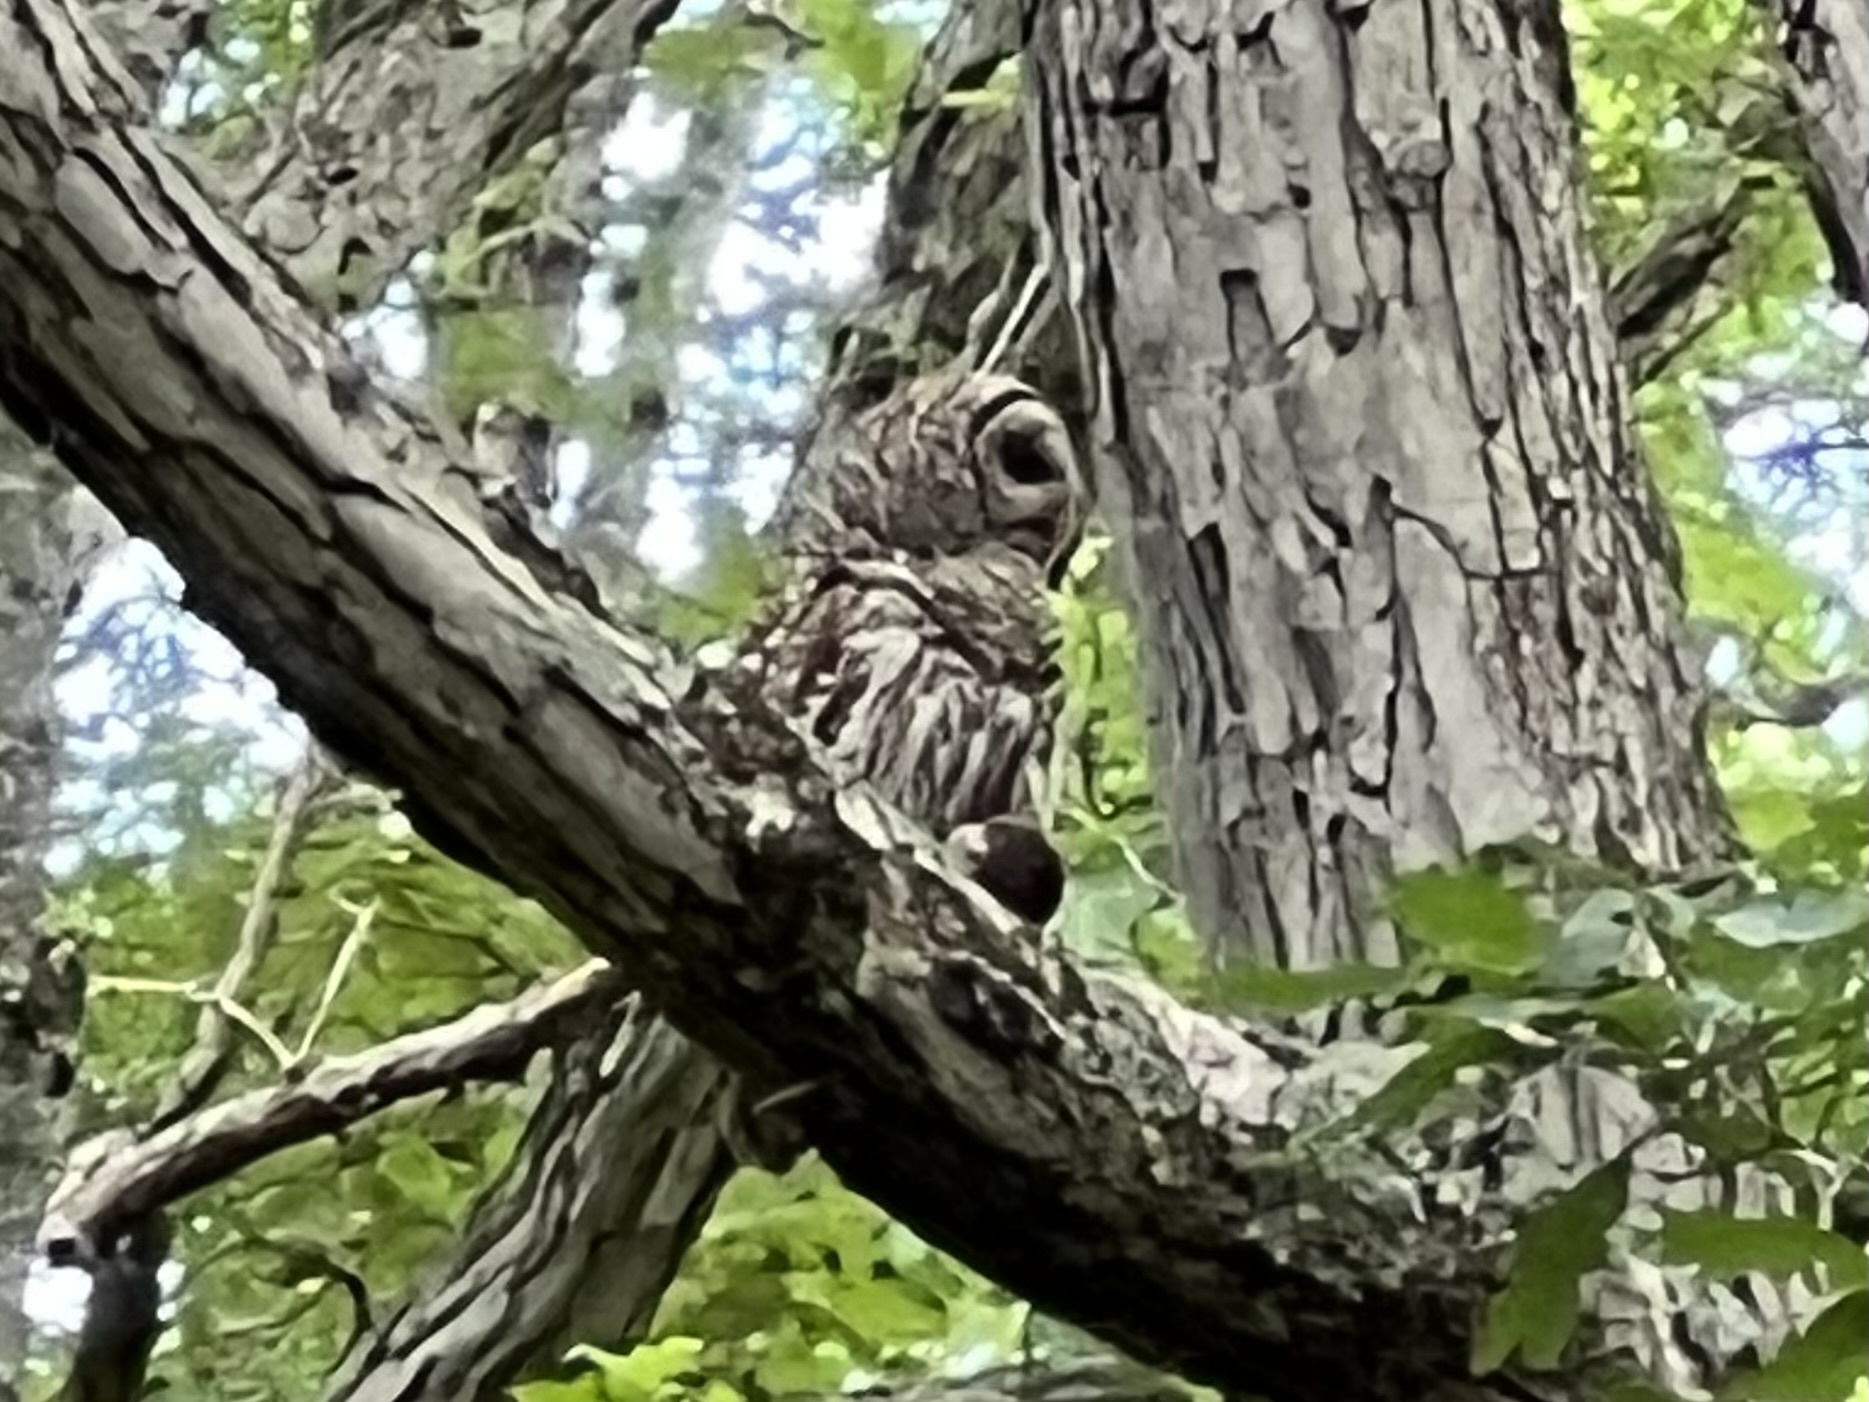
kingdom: Animalia
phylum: Chordata
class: Aves
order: Strigiformes
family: Strigidae
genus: Strix
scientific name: Strix varia
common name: Barred owl
